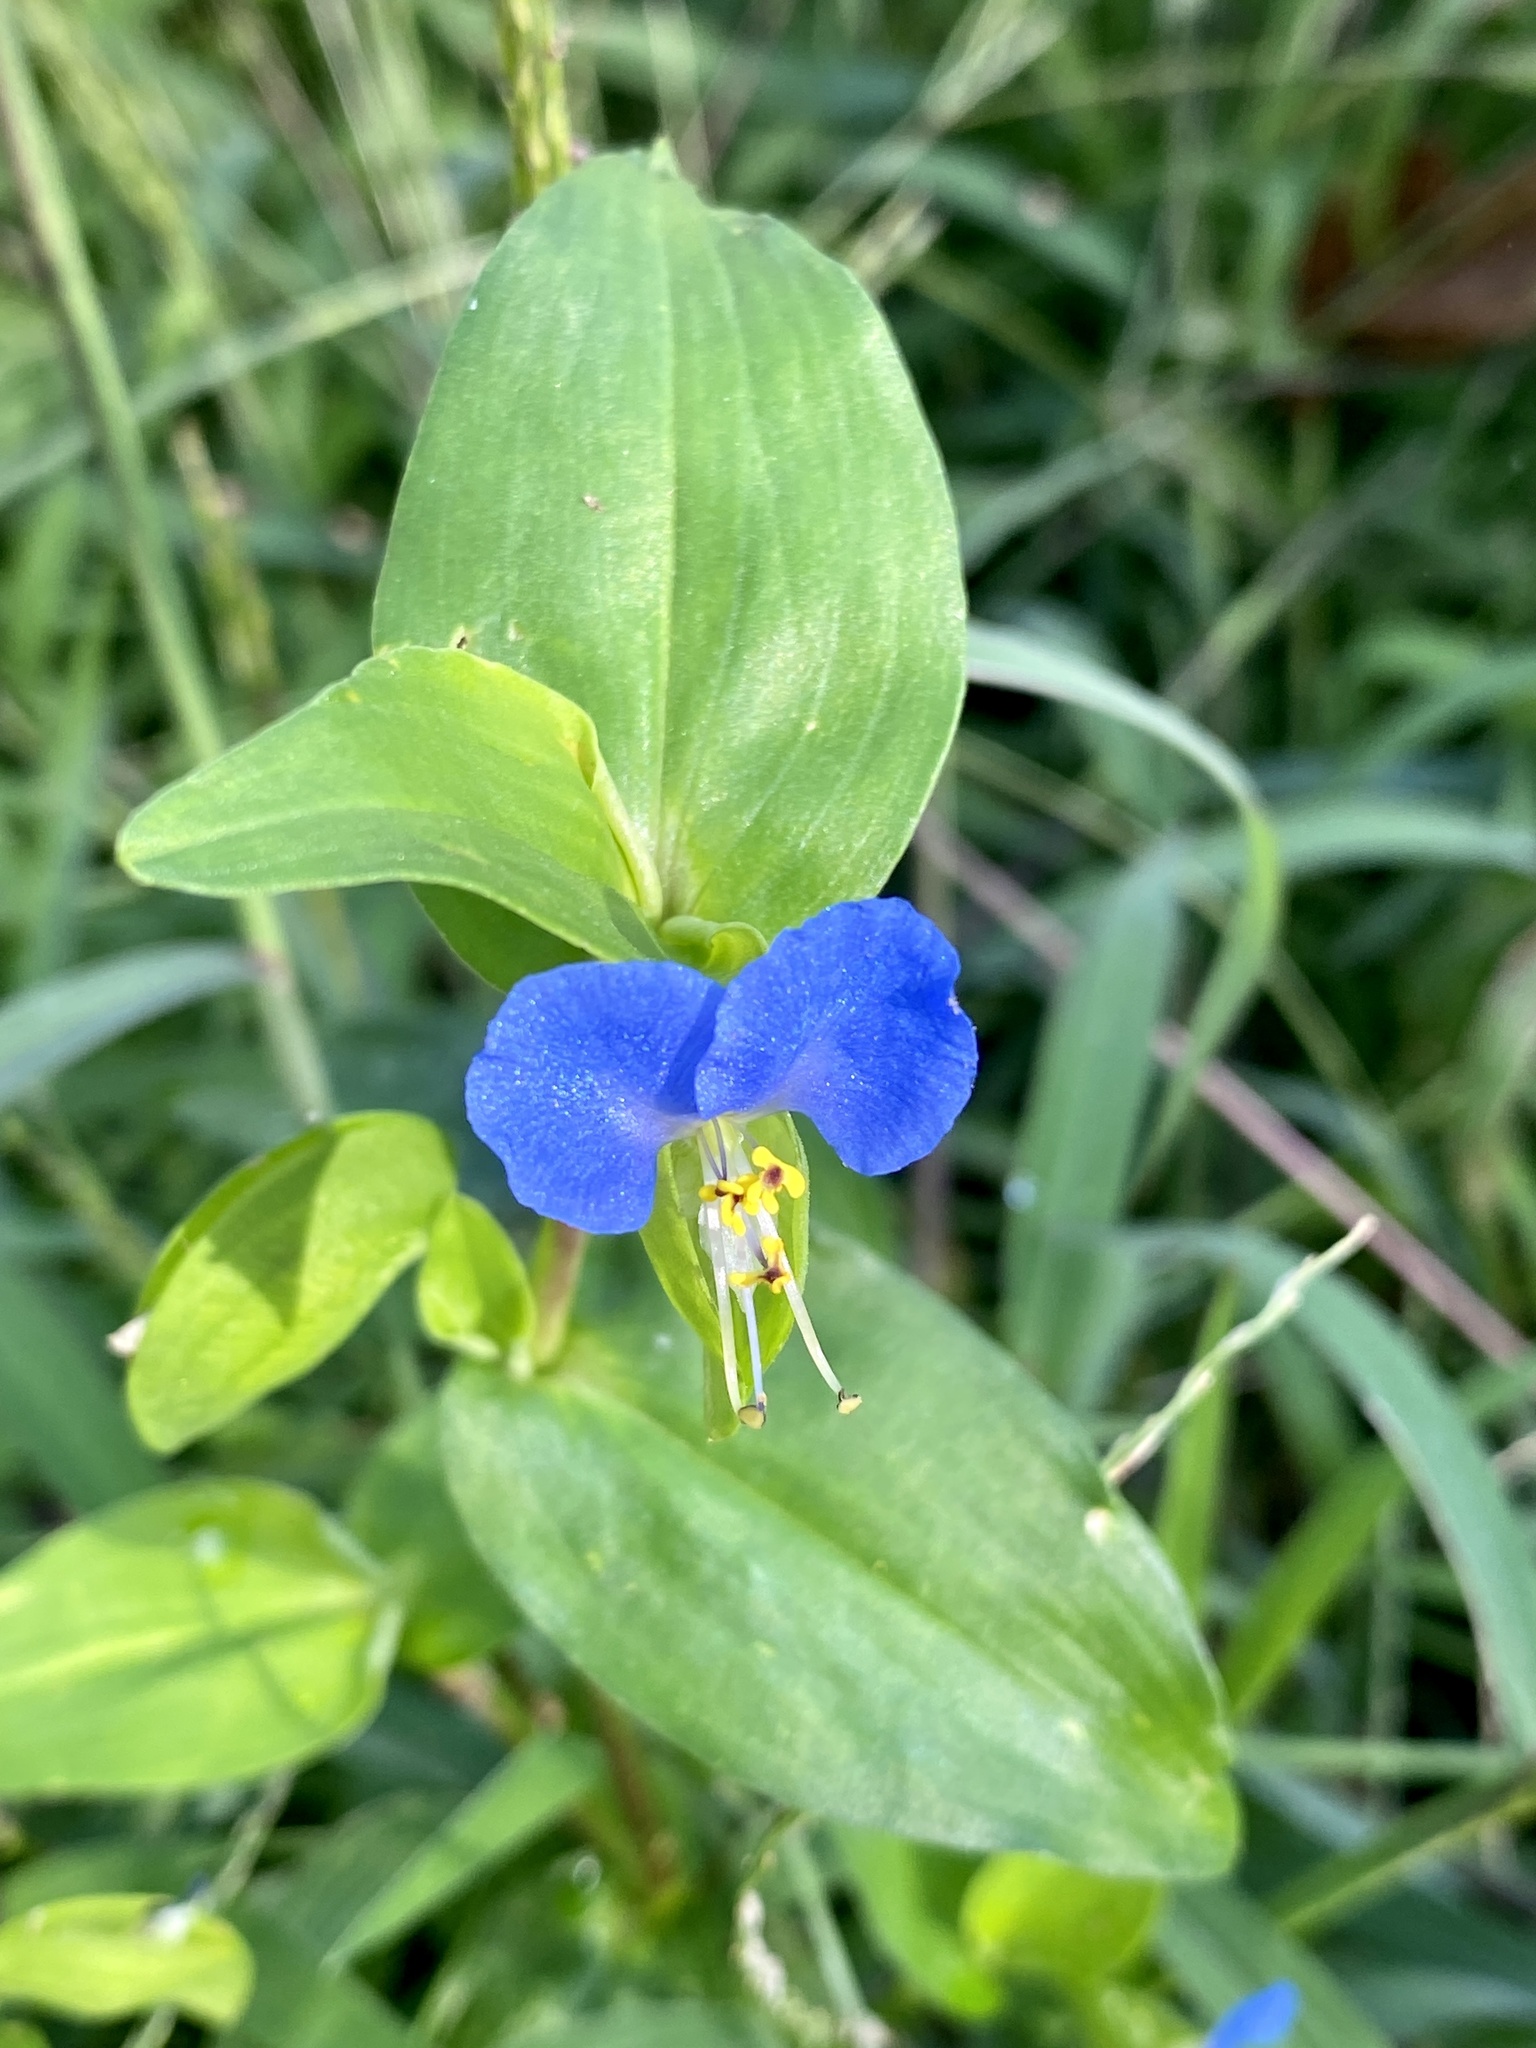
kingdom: Plantae
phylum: Tracheophyta
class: Liliopsida
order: Commelinales
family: Commelinaceae
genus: Commelina
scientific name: Commelina communis
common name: Asiatic dayflower
